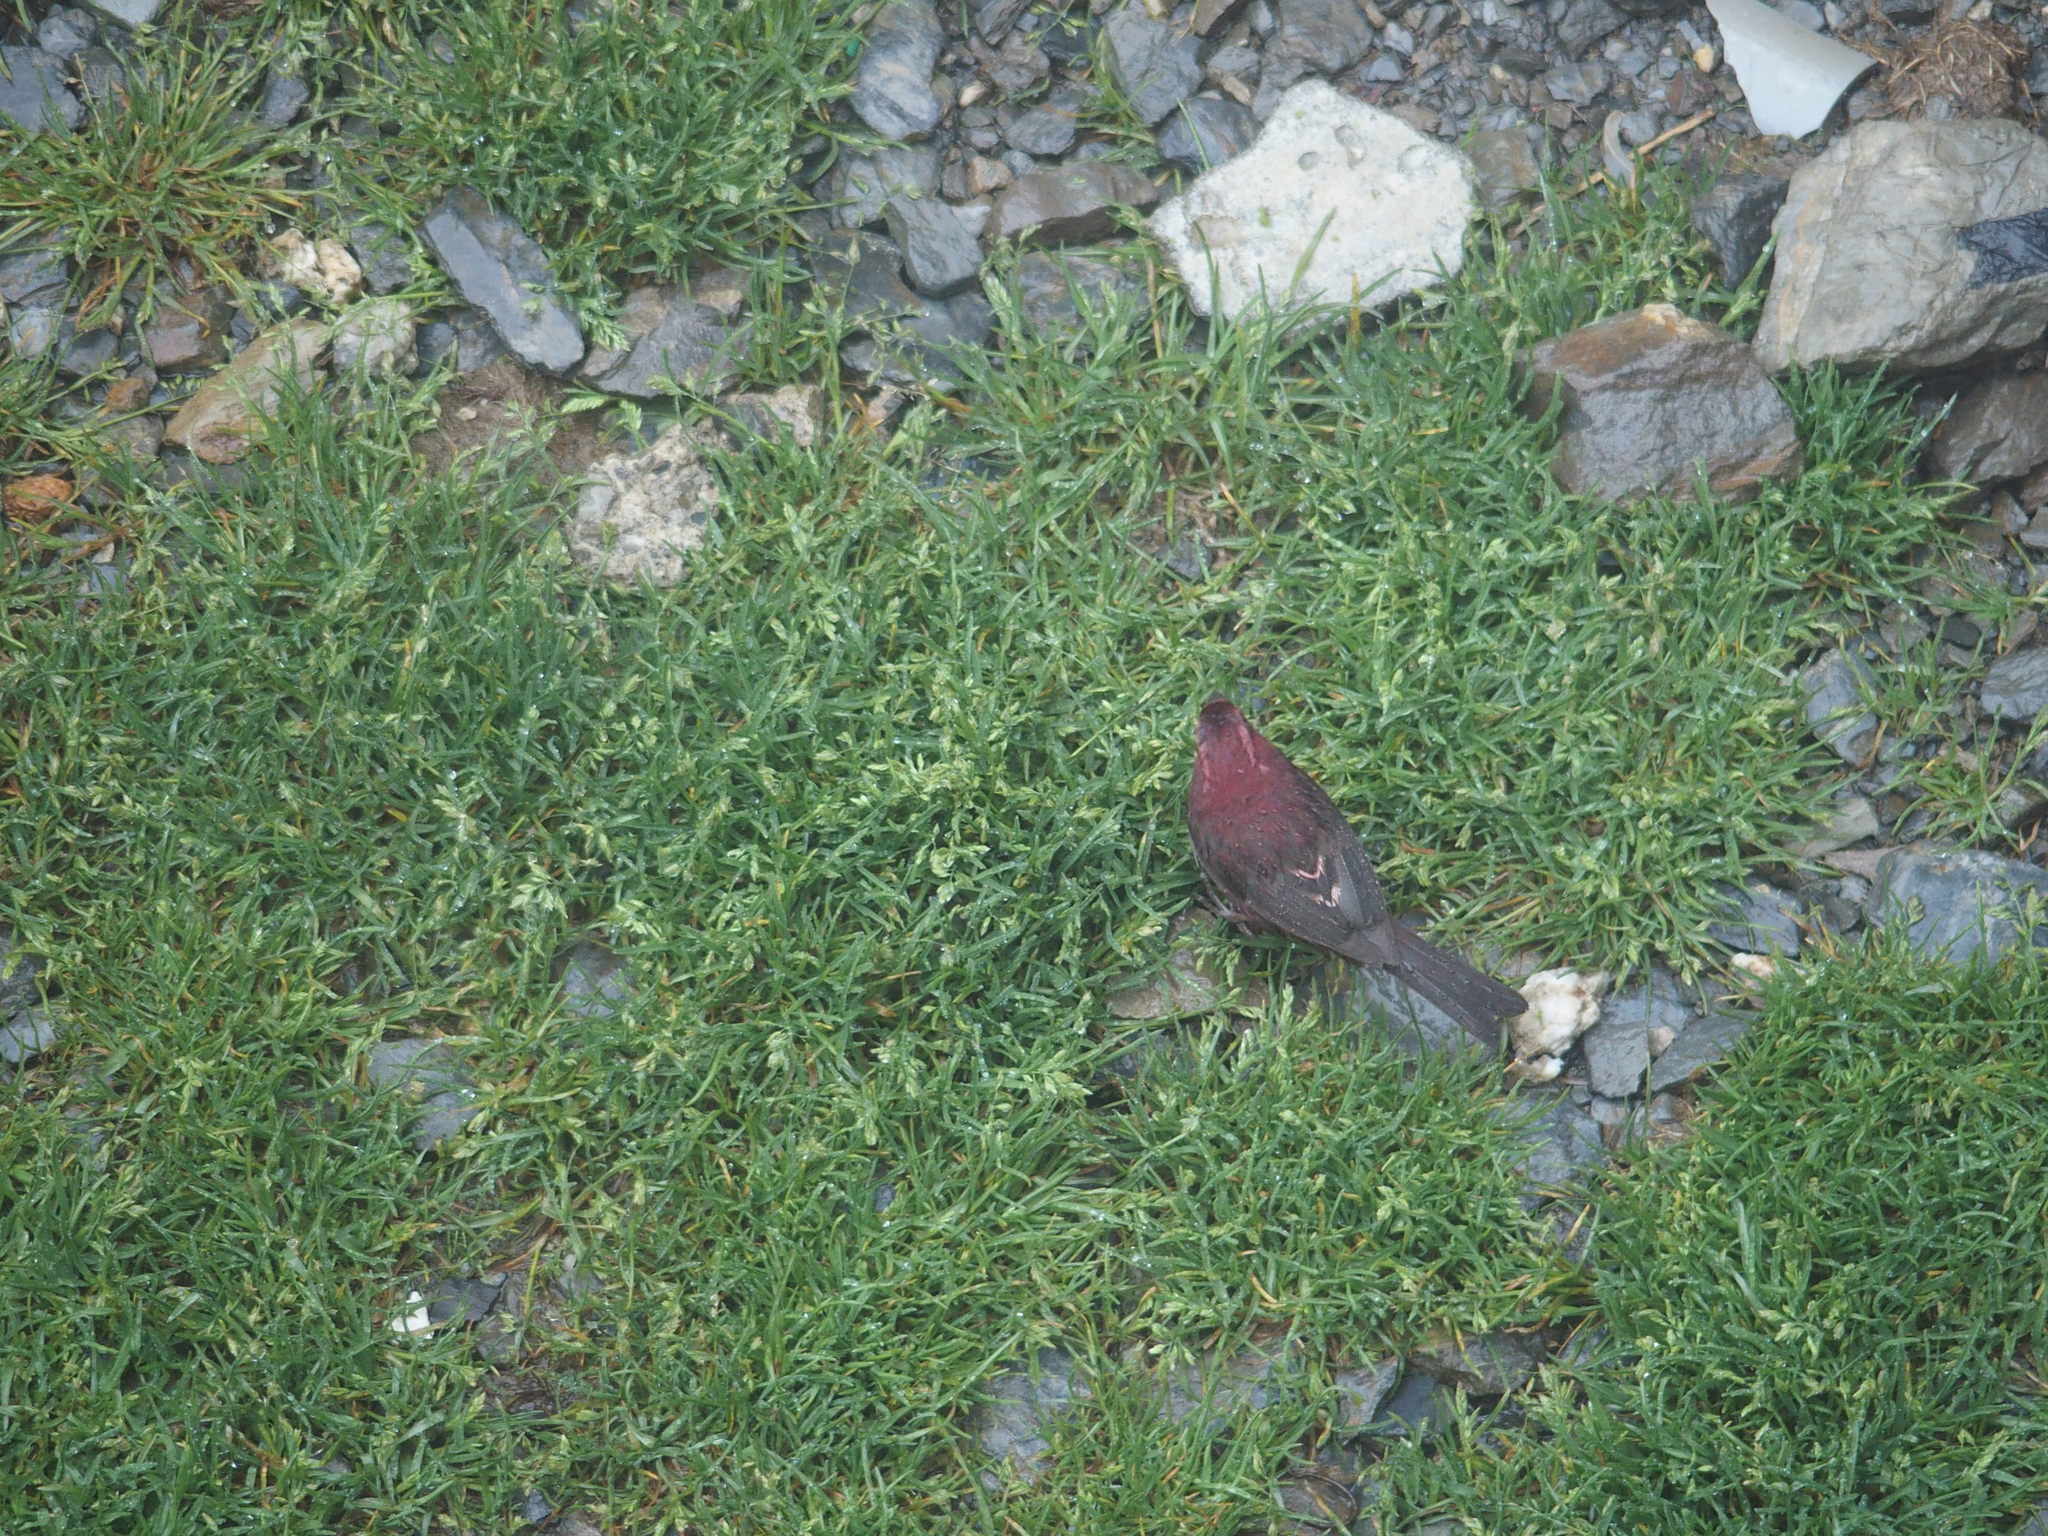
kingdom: Animalia
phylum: Chordata
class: Aves
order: Passeriformes
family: Fringillidae
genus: Carpodacus
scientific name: Carpodacus formosanus
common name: Taiwan rosefinch
